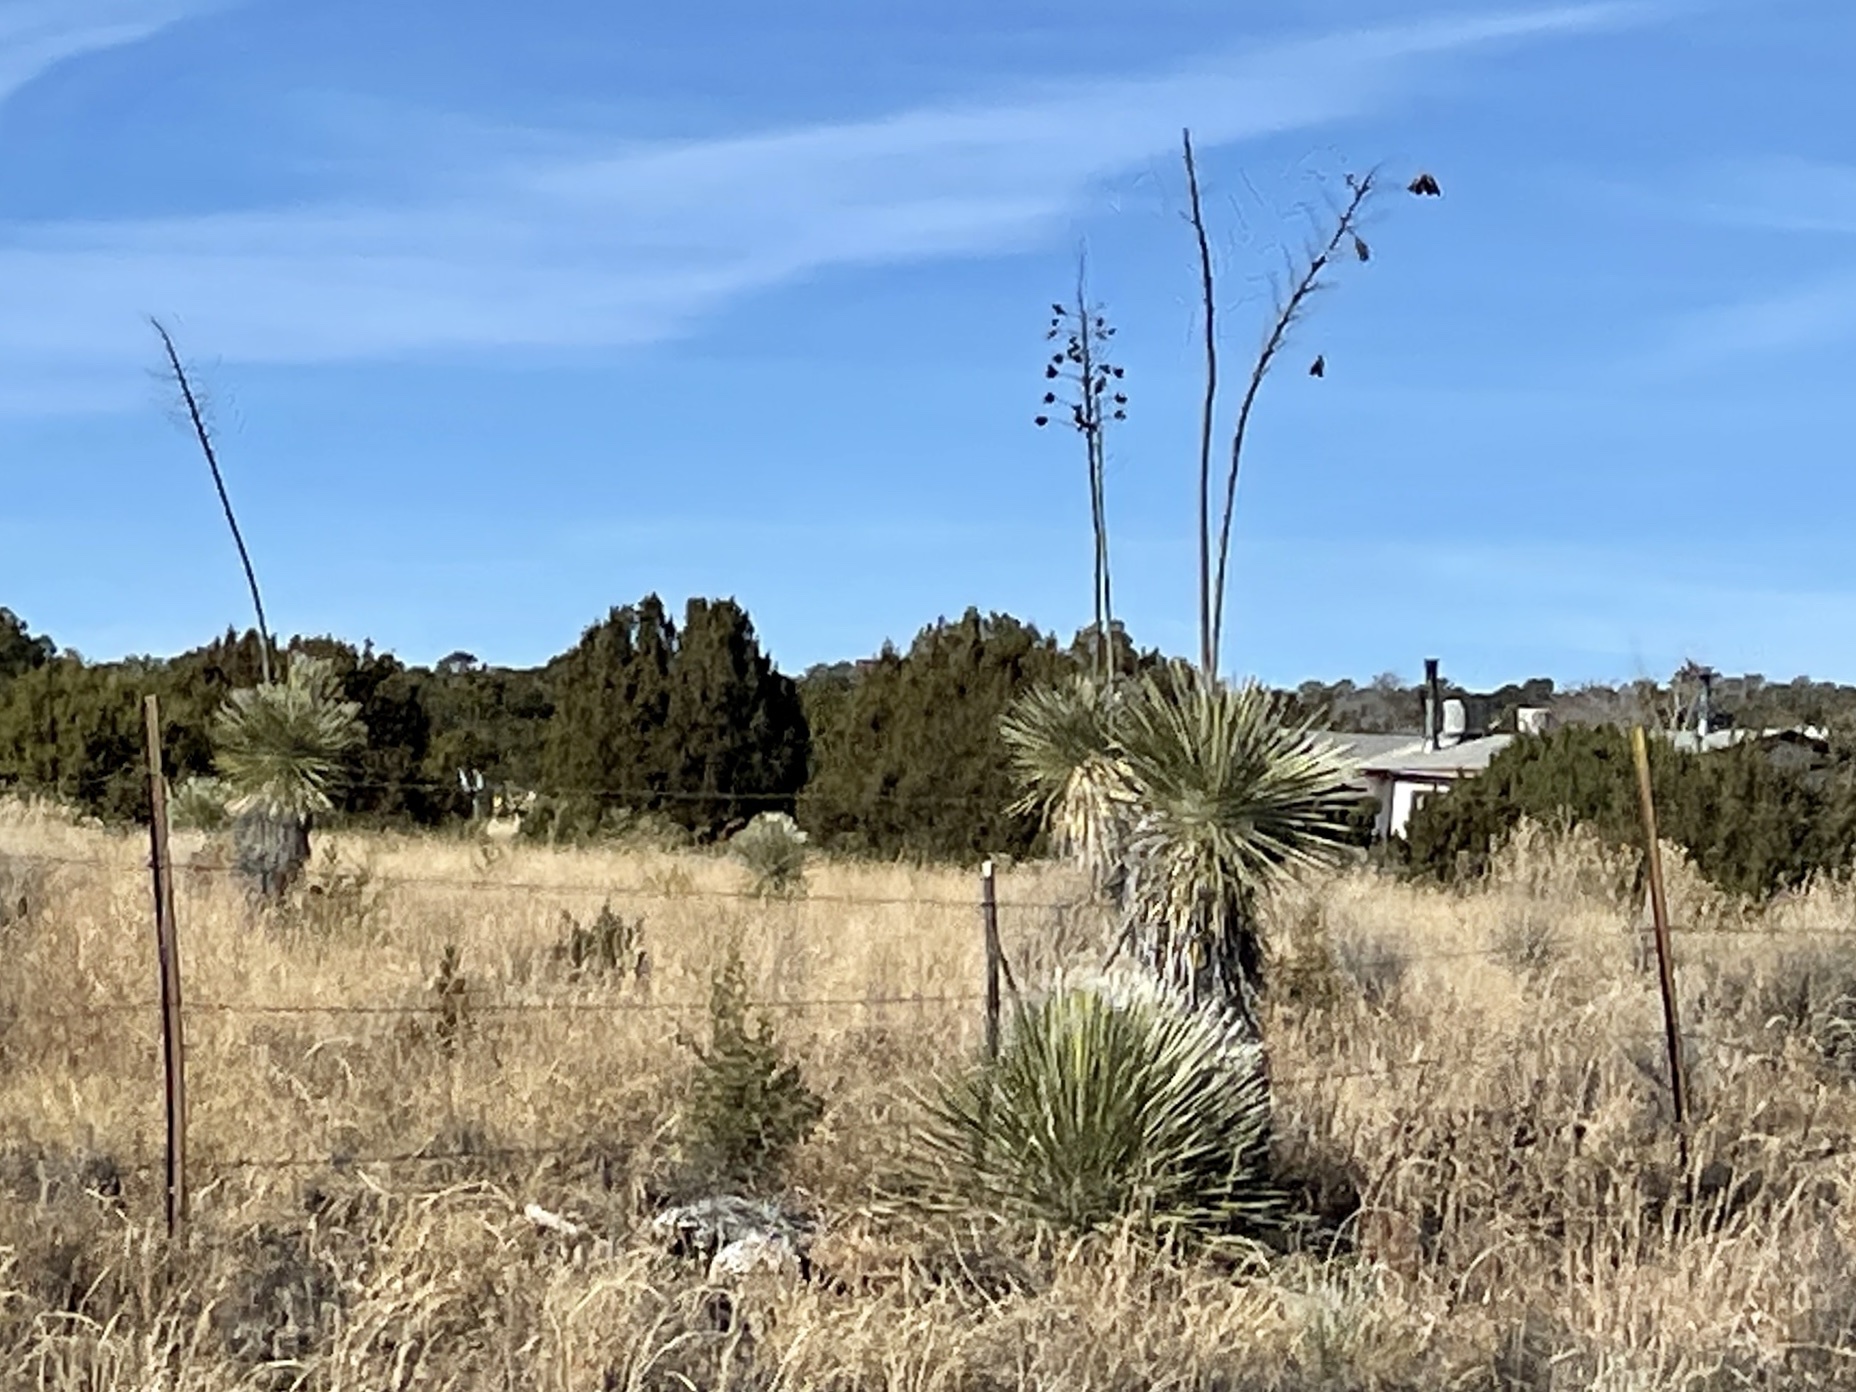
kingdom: Plantae
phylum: Tracheophyta
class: Liliopsida
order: Asparagales
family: Asparagaceae
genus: Yucca
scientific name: Yucca elata
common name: Palmella
